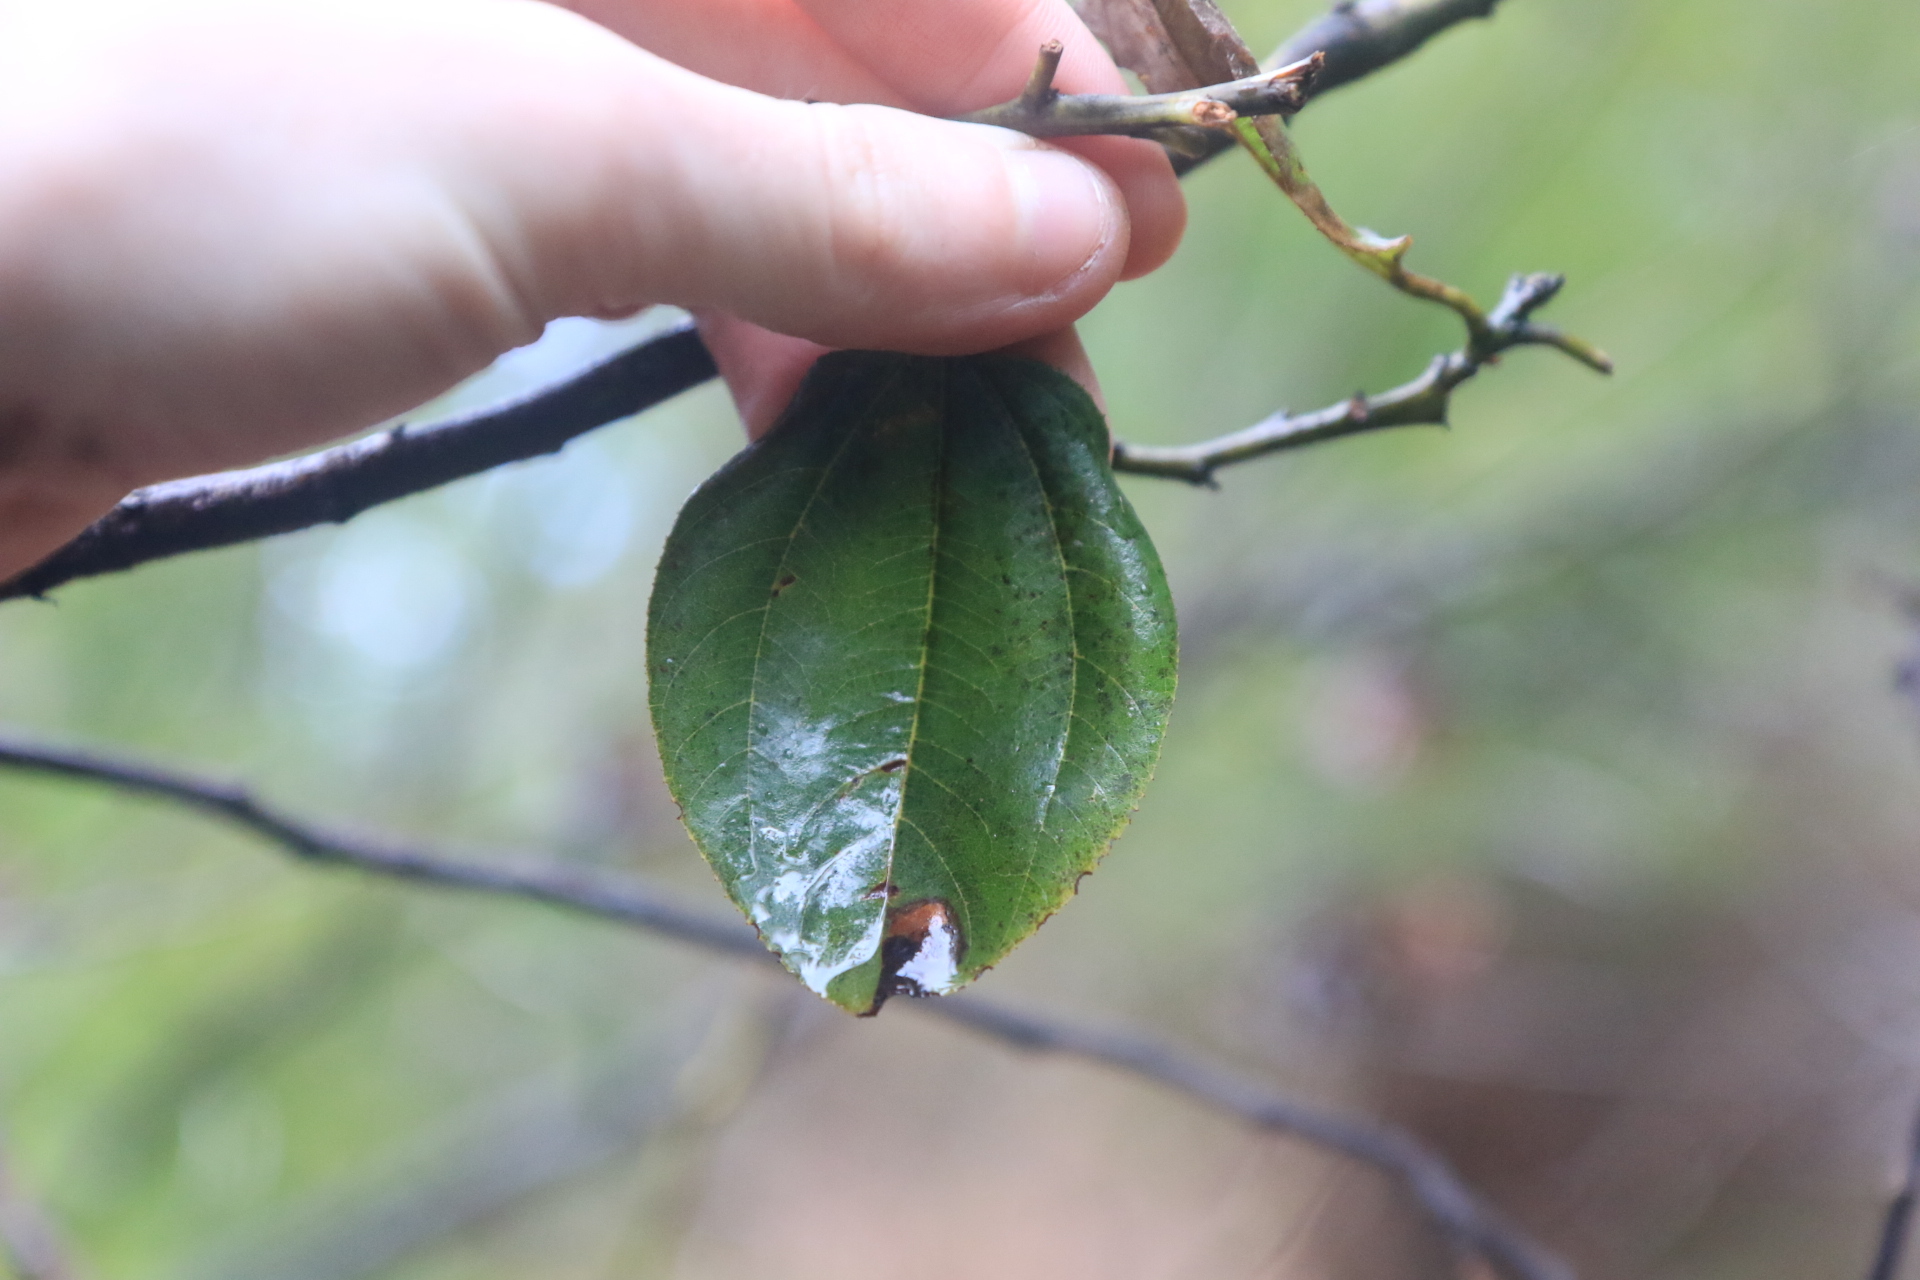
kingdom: Plantae
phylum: Tracheophyta
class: Magnoliopsida
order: Rosales
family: Rhamnaceae
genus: Ceanothus
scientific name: Ceanothus velutinus
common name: Snowbrush
